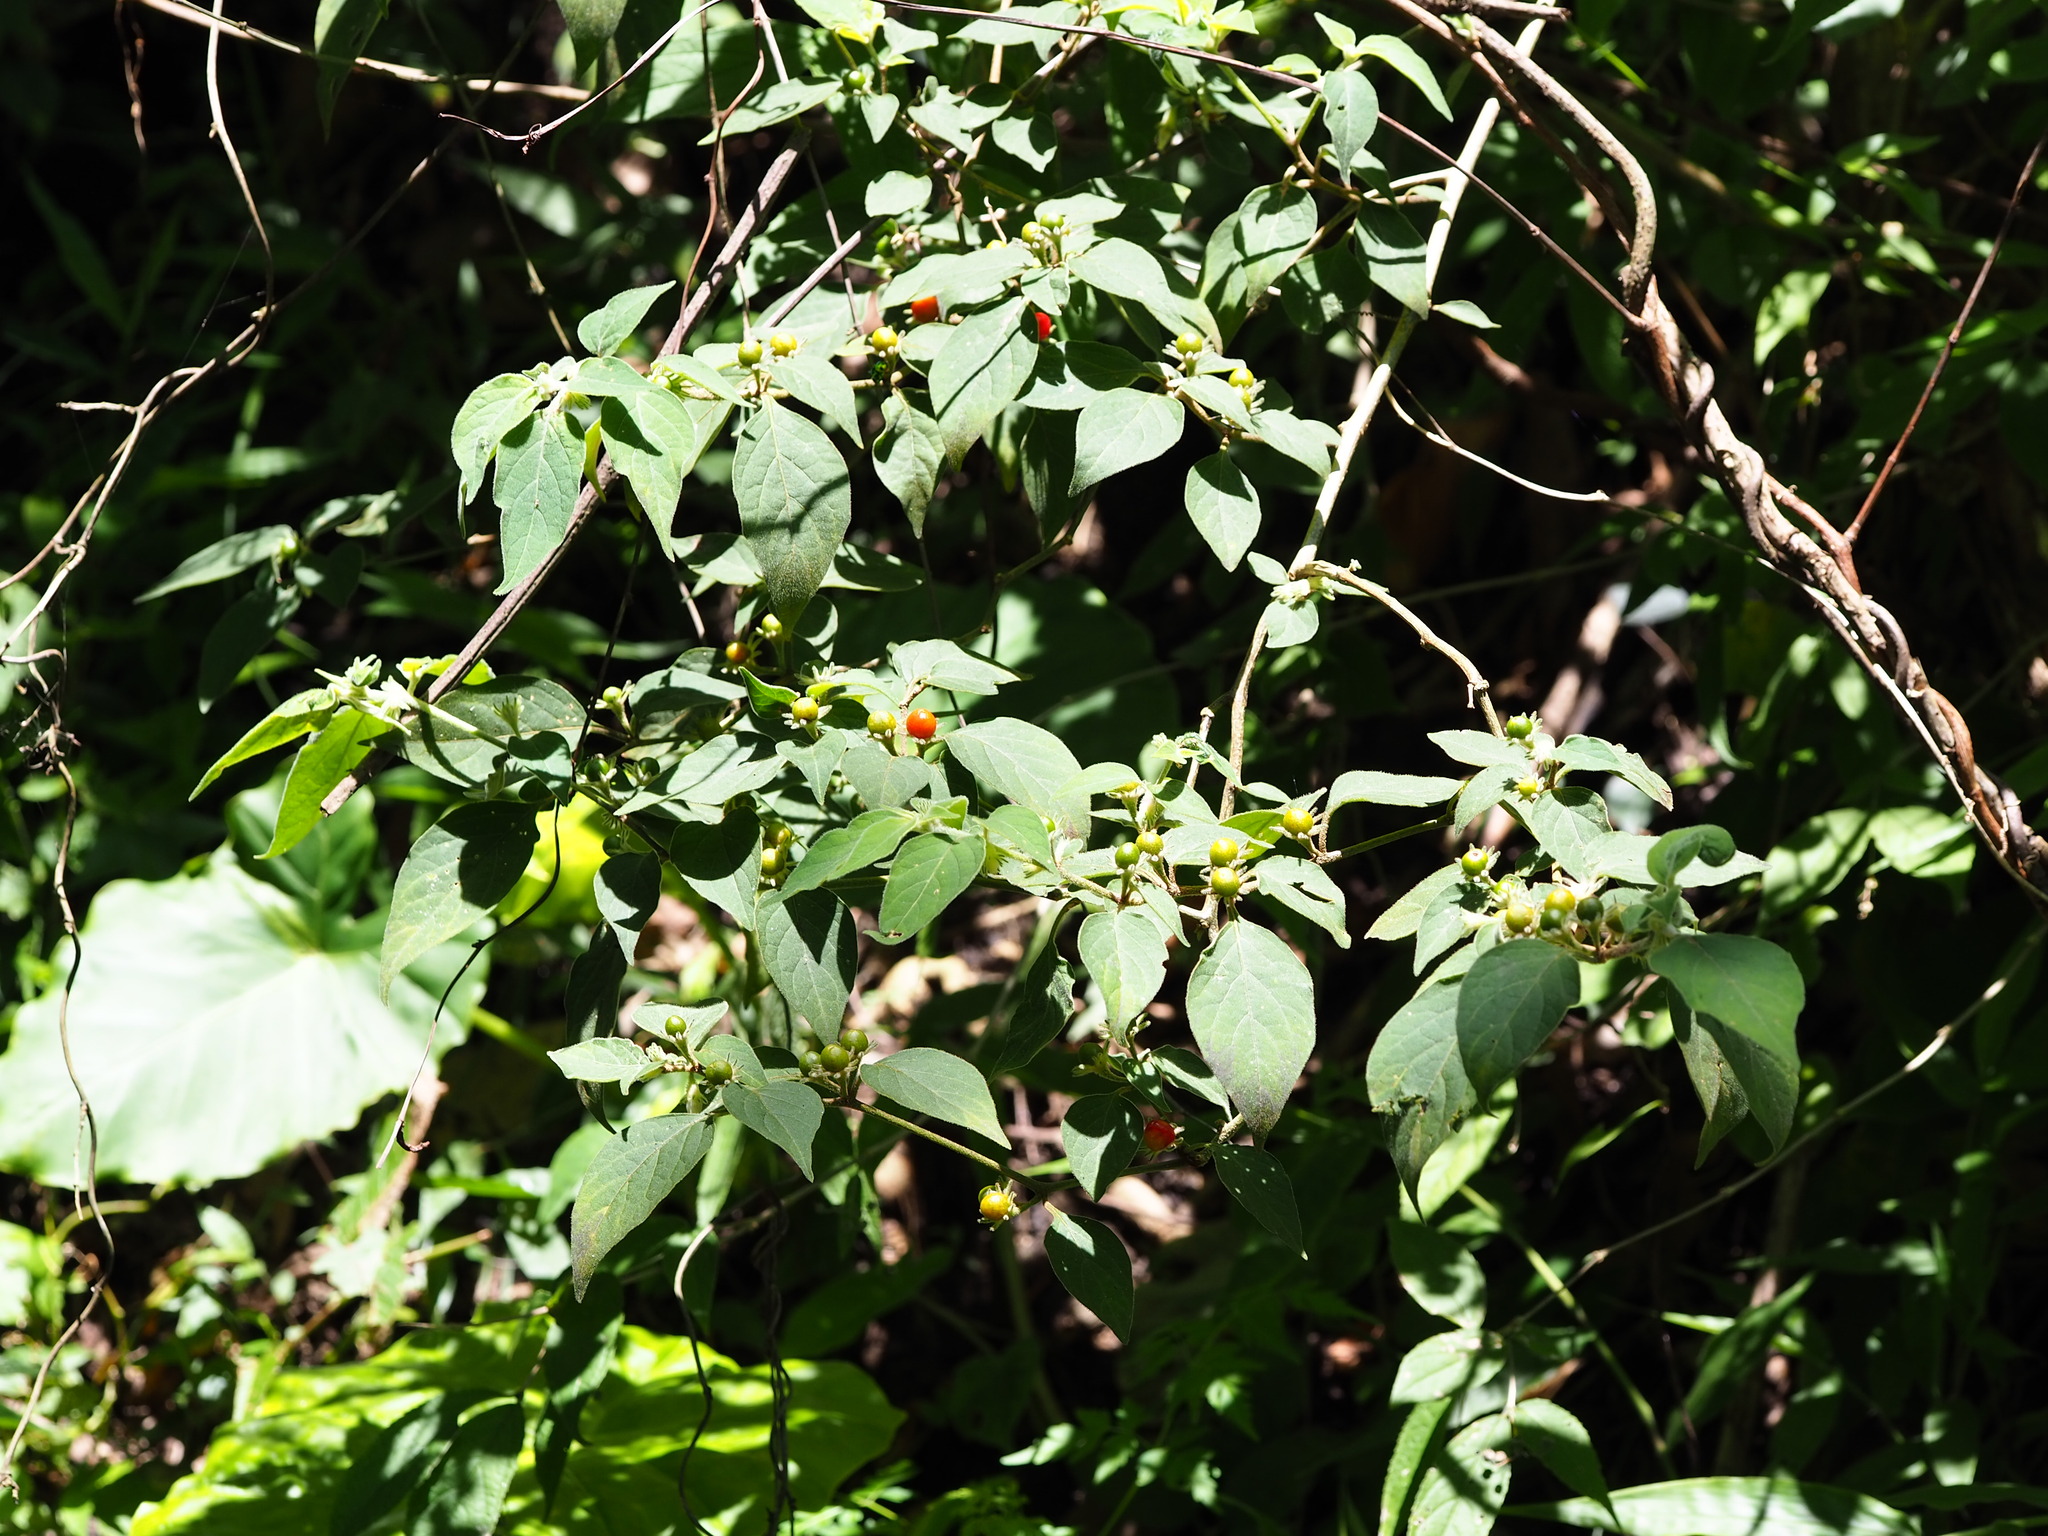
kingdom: Plantae
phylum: Tracheophyta
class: Magnoliopsida
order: Solanales
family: Solanaceae
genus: Lycianthes
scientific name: Lycianthes biflora
